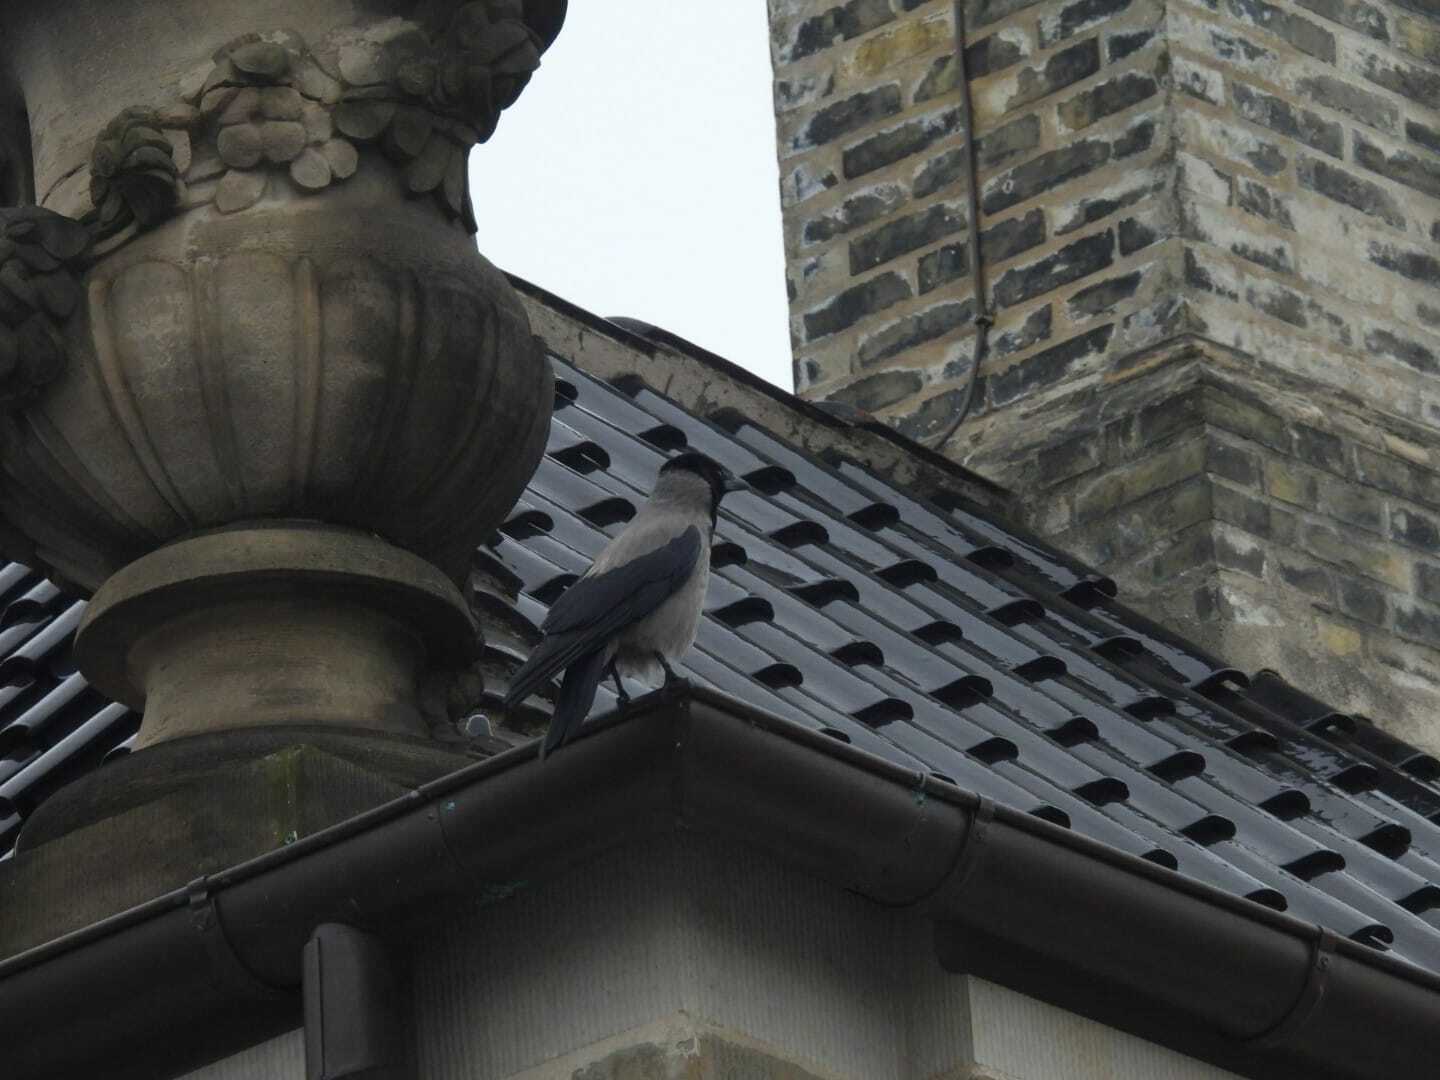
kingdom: Animalia
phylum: Chordata
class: Aves
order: Passeriformes
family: Corvidae
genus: Corvus
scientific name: Corvus cornix
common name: Hooded crow
